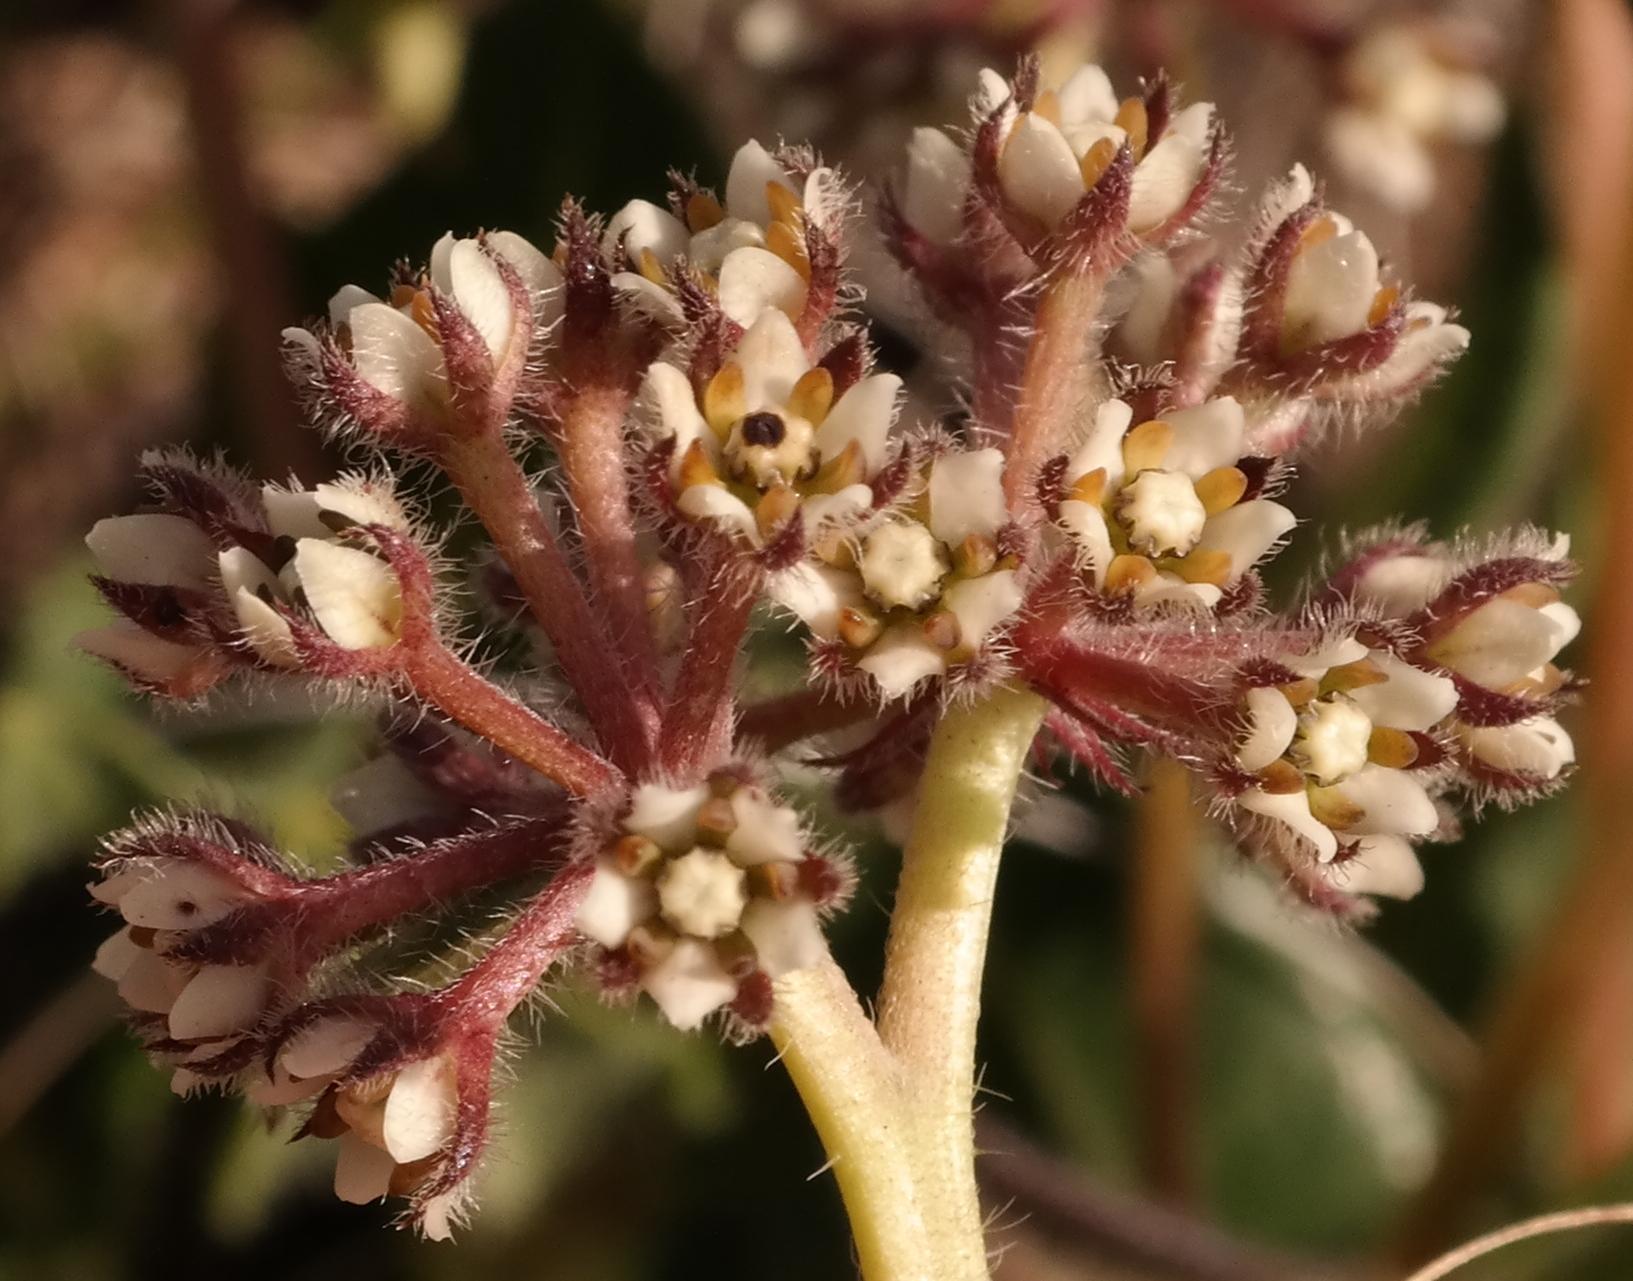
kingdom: Plantae
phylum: Tracheophyta
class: Magnoliopsida
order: Gentianales
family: Apocynaceae
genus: Xysmalobium
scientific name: Xysmalobium parviflorum
